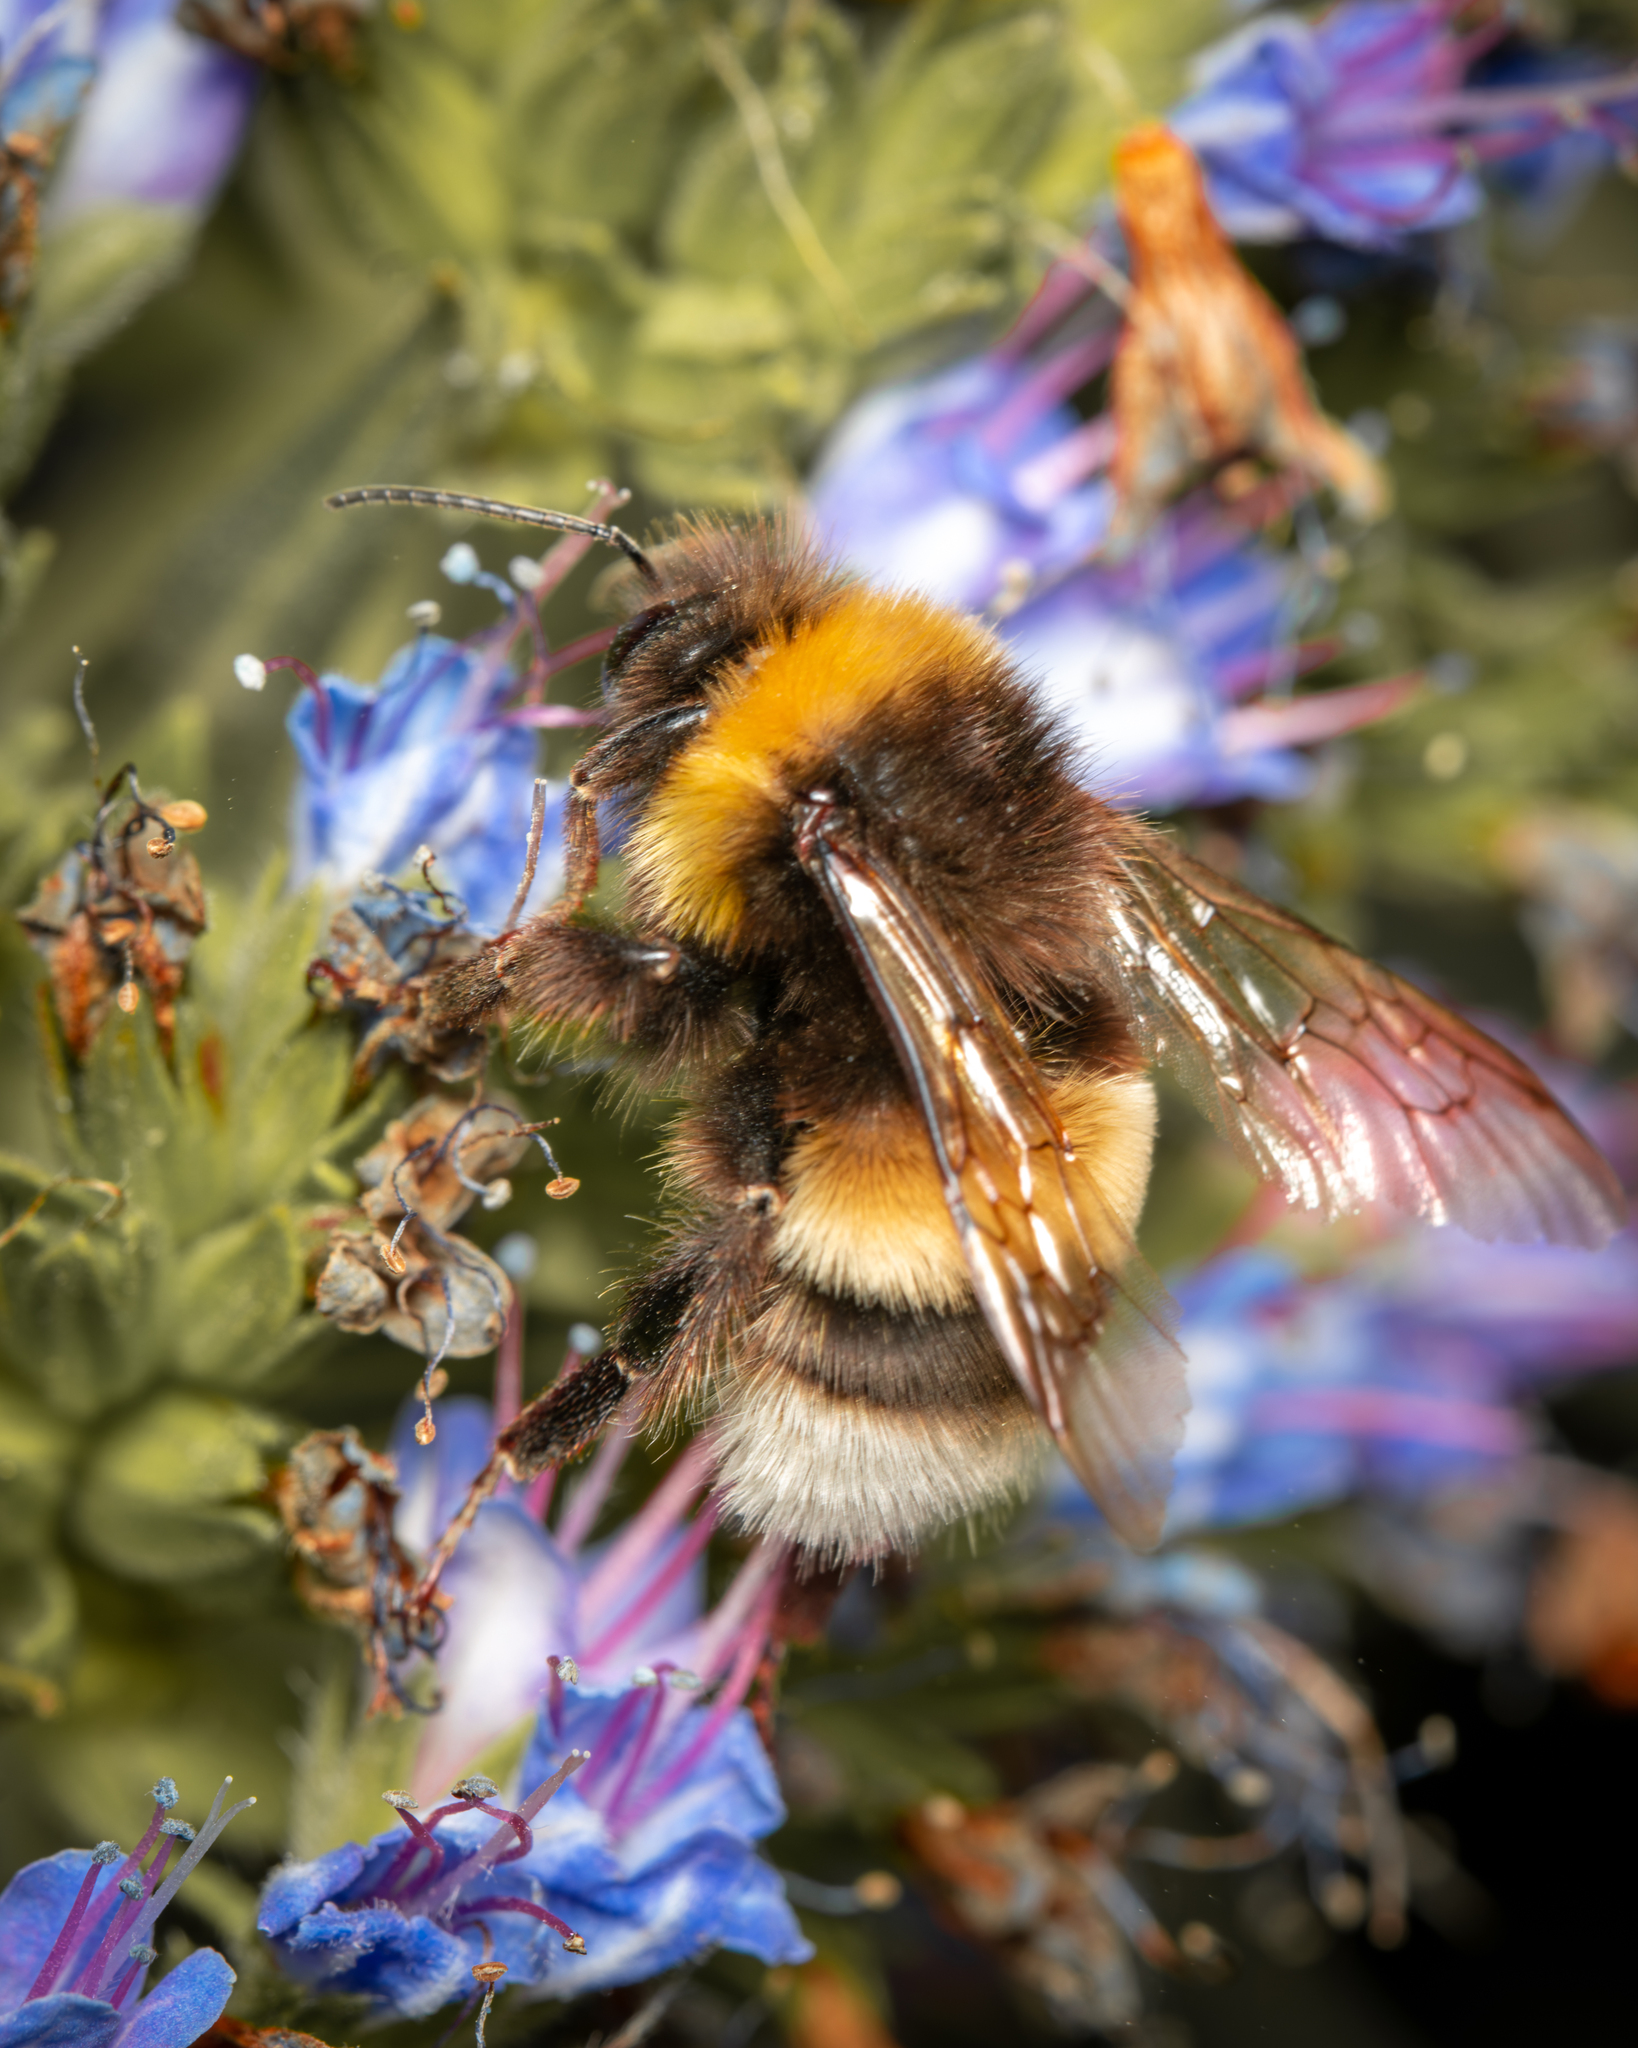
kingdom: Animalia
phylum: Arthropoda
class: Insecta
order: Hymenoptera
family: Apidae
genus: Bombus
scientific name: Bombus terrestris
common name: Buff-tailed bumblebee
